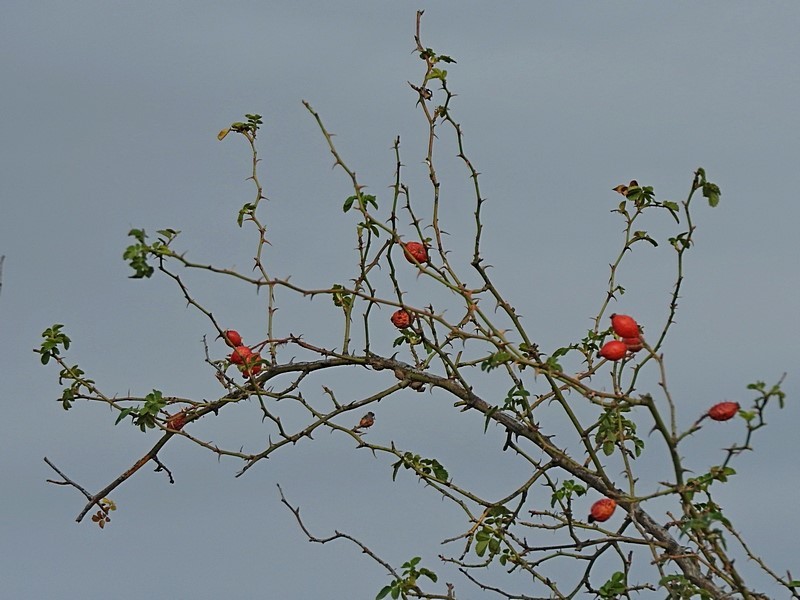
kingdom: Plantae
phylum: Tracheophyta
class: Magnoliopsida
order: Rosales
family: Rosaceae
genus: Rosa
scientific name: Rosa rubiginosa
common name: Sweet-briar
